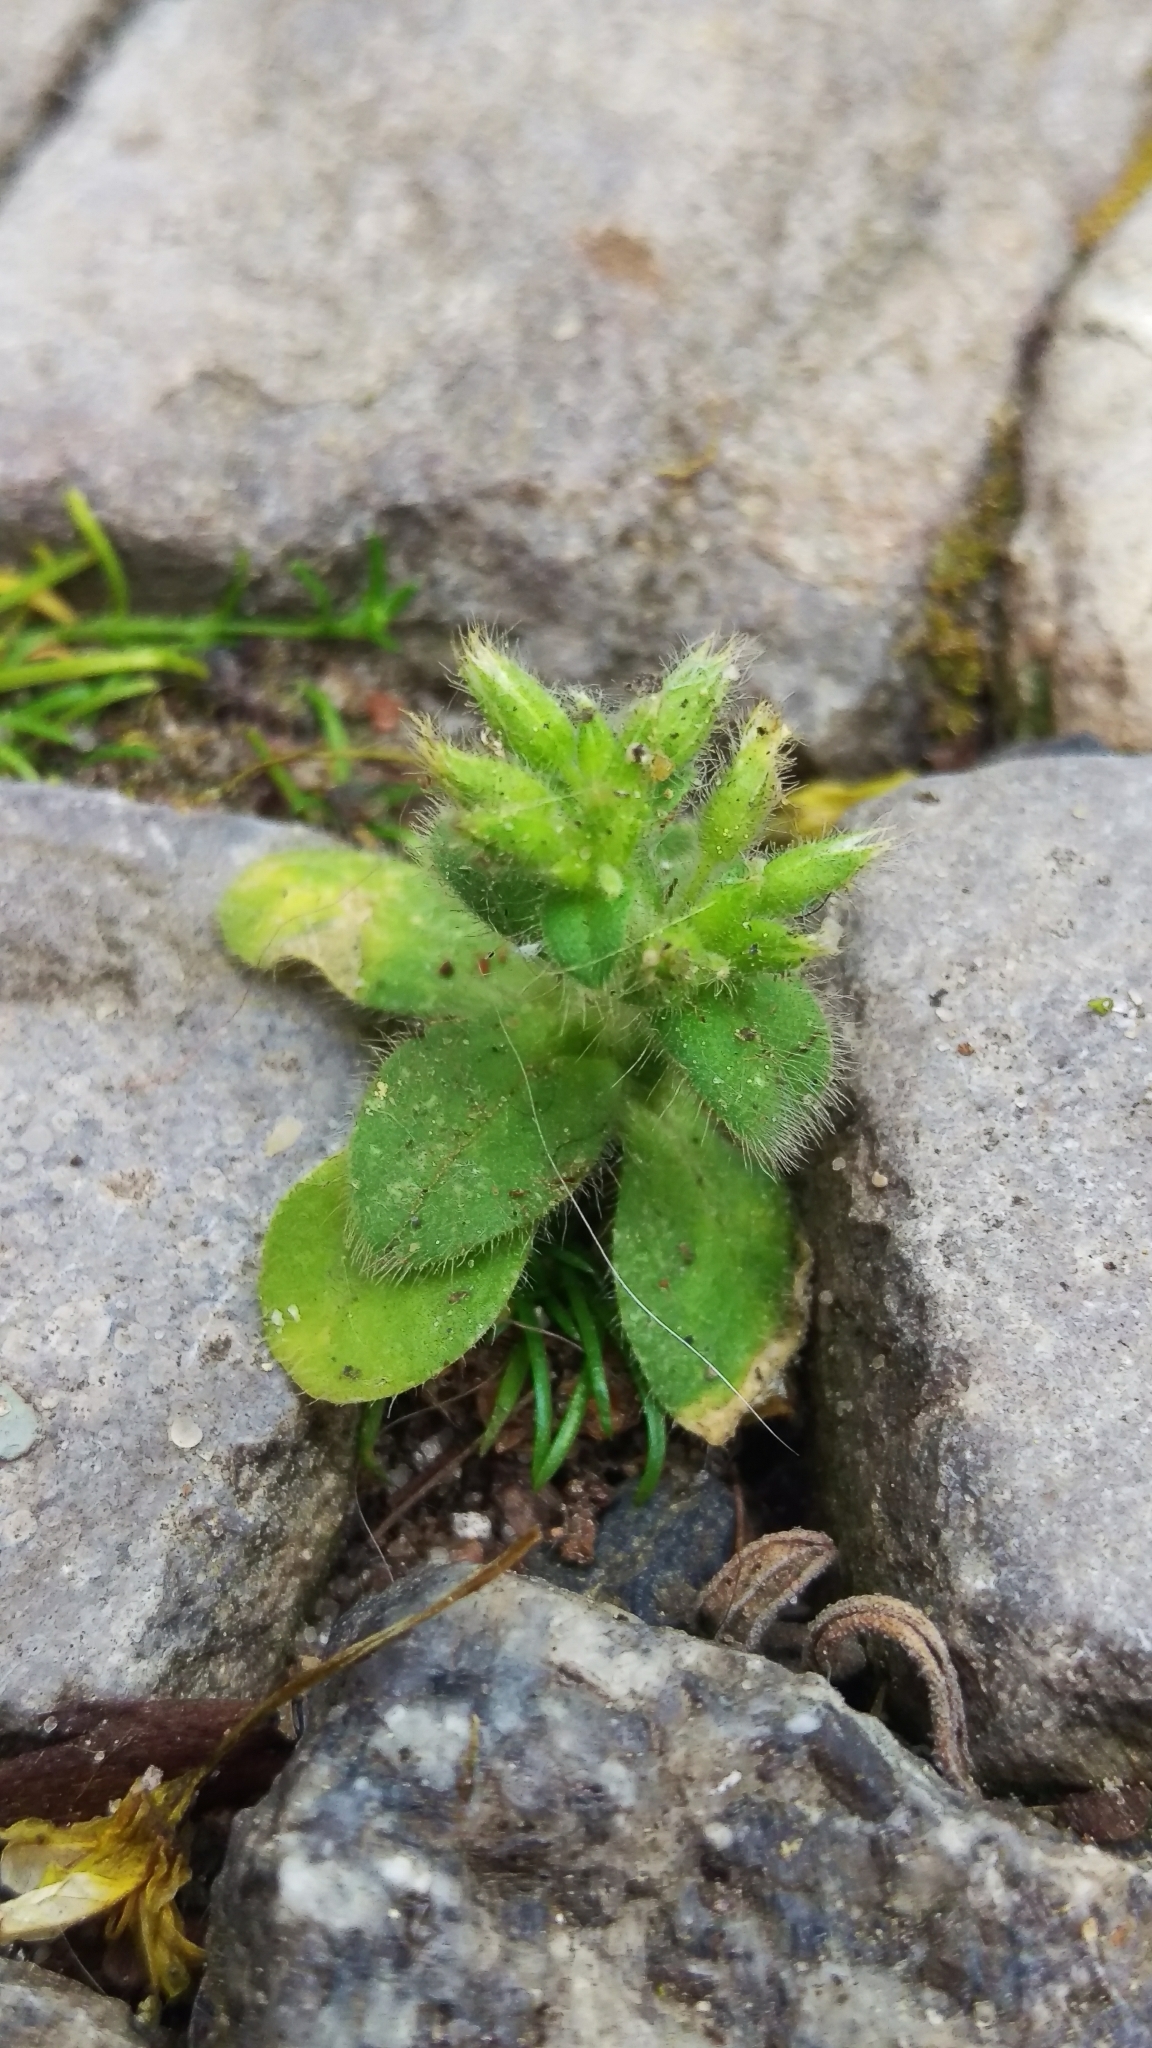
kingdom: Plantae
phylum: Tracheophyta
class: Magnoliopsida
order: Caryophyllales
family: Caryophyllaceae
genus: Cerastium
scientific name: Cerastium glomeratum
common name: Sticky chickweed
